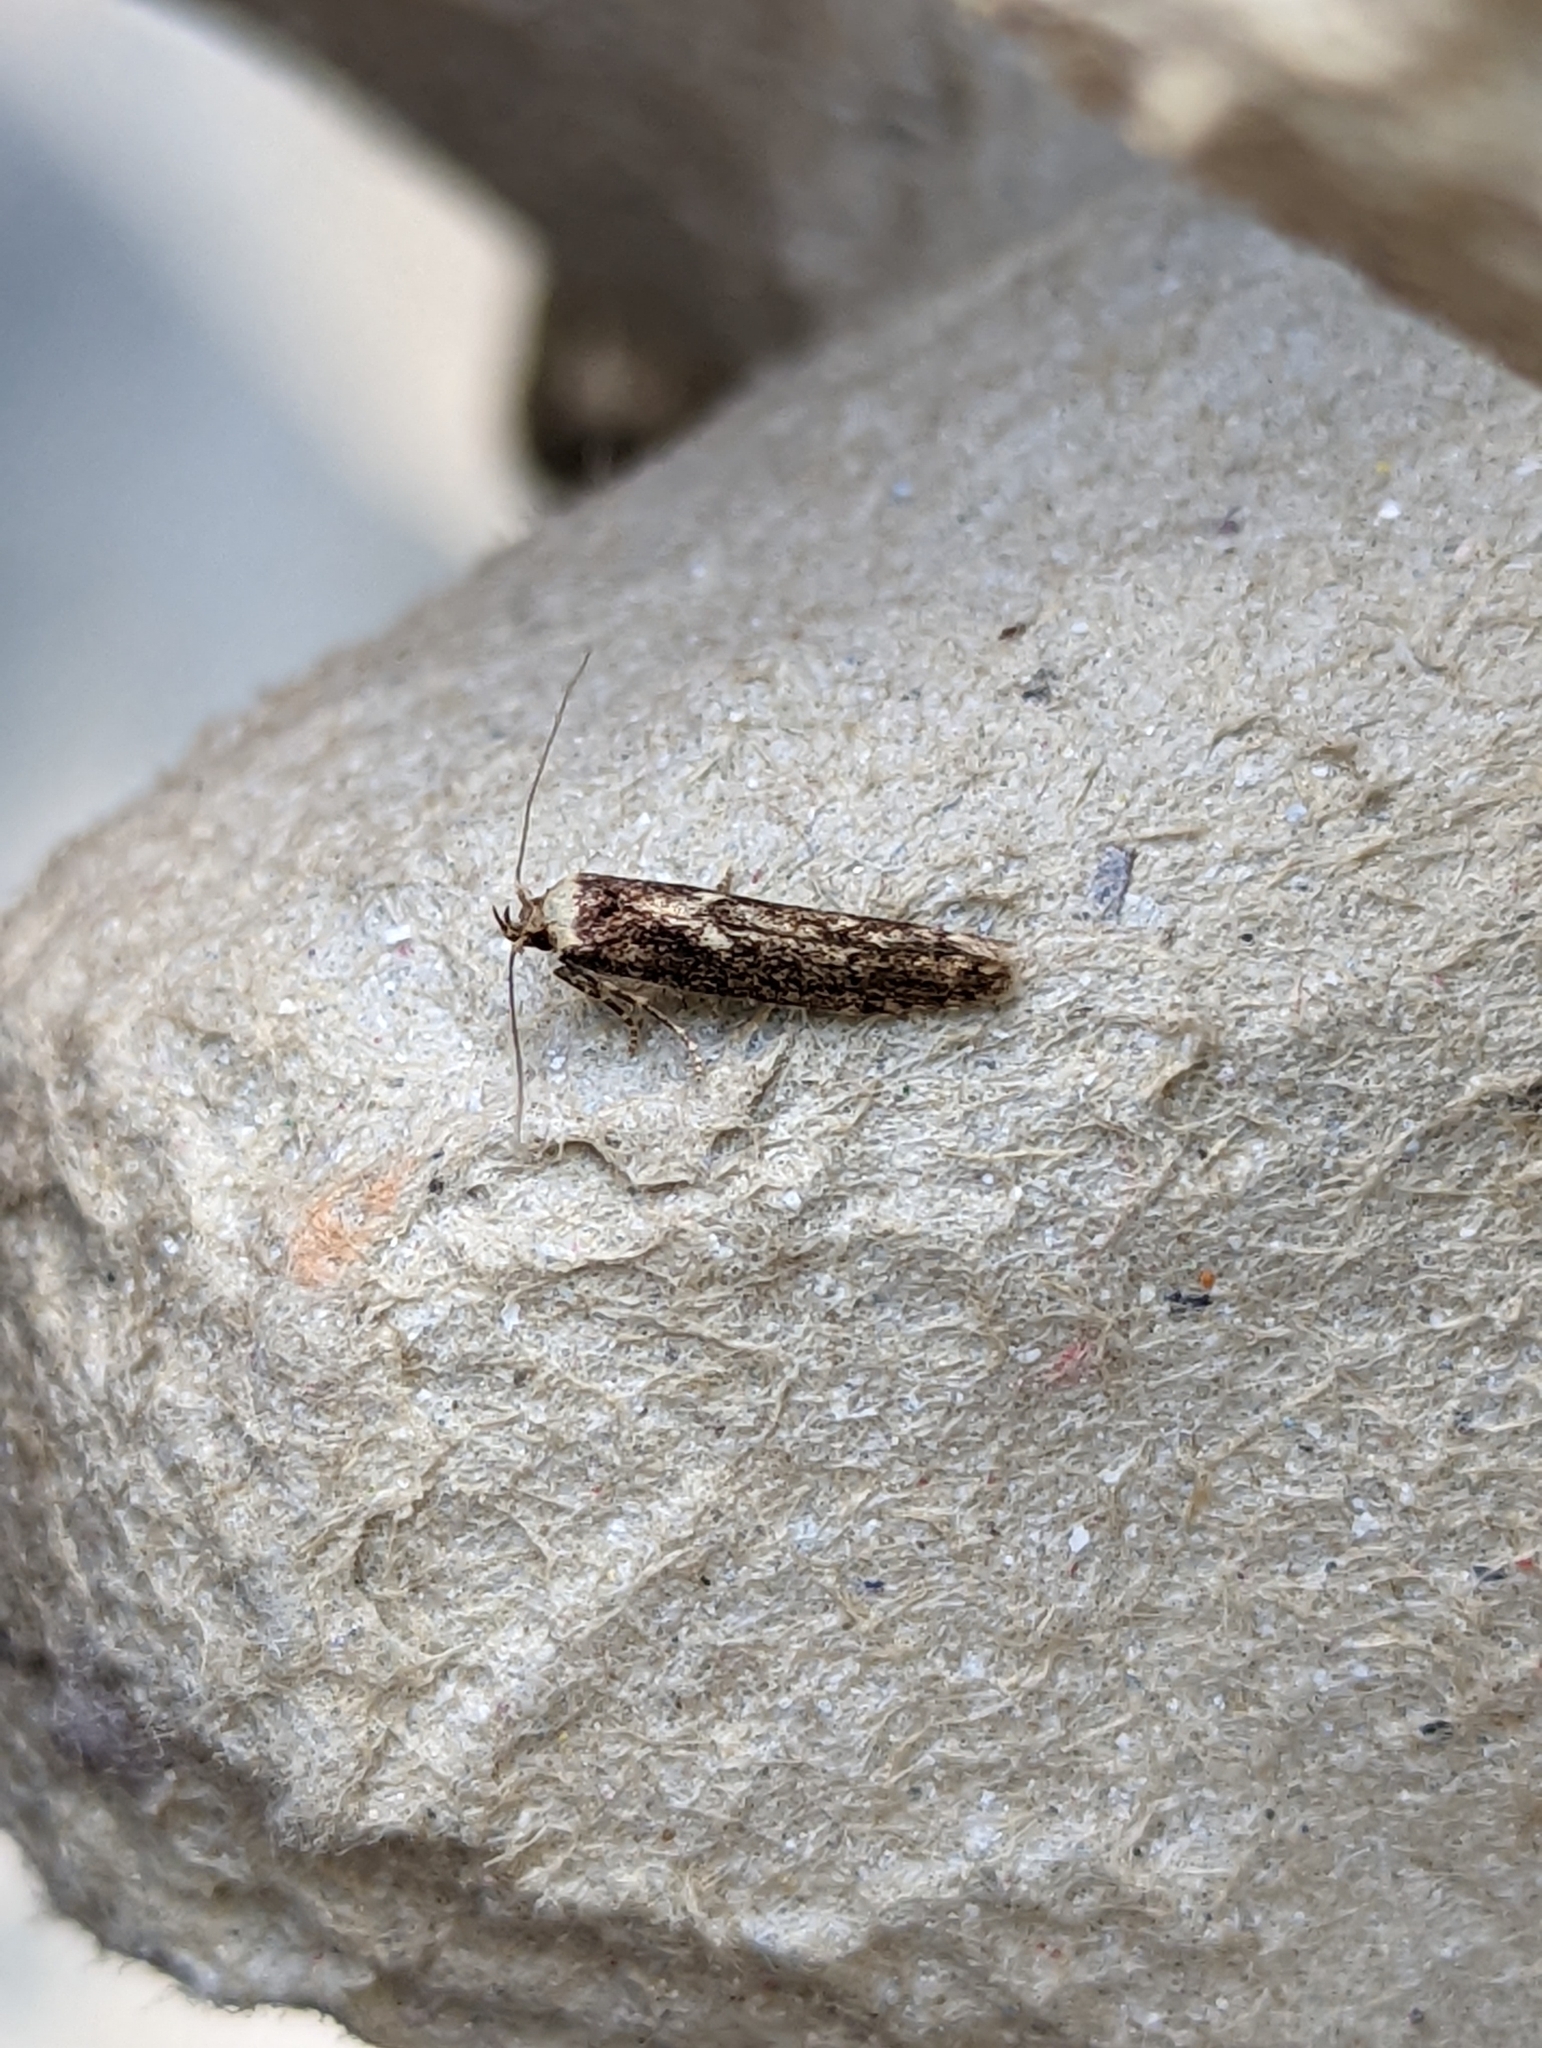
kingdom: Animalia
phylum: Arthropoda
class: Insecta
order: Lepidoptera
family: Blastobasidae
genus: Blastobasis
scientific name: Blastobasis adustella
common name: Dingy dowd
